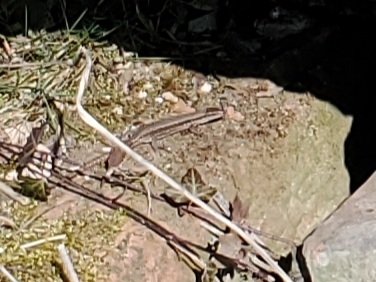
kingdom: Animalia
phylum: Chordata
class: Squamata
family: Lacertidae
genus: Podarcis
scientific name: Podarcis muralis
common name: Common wall lizard
